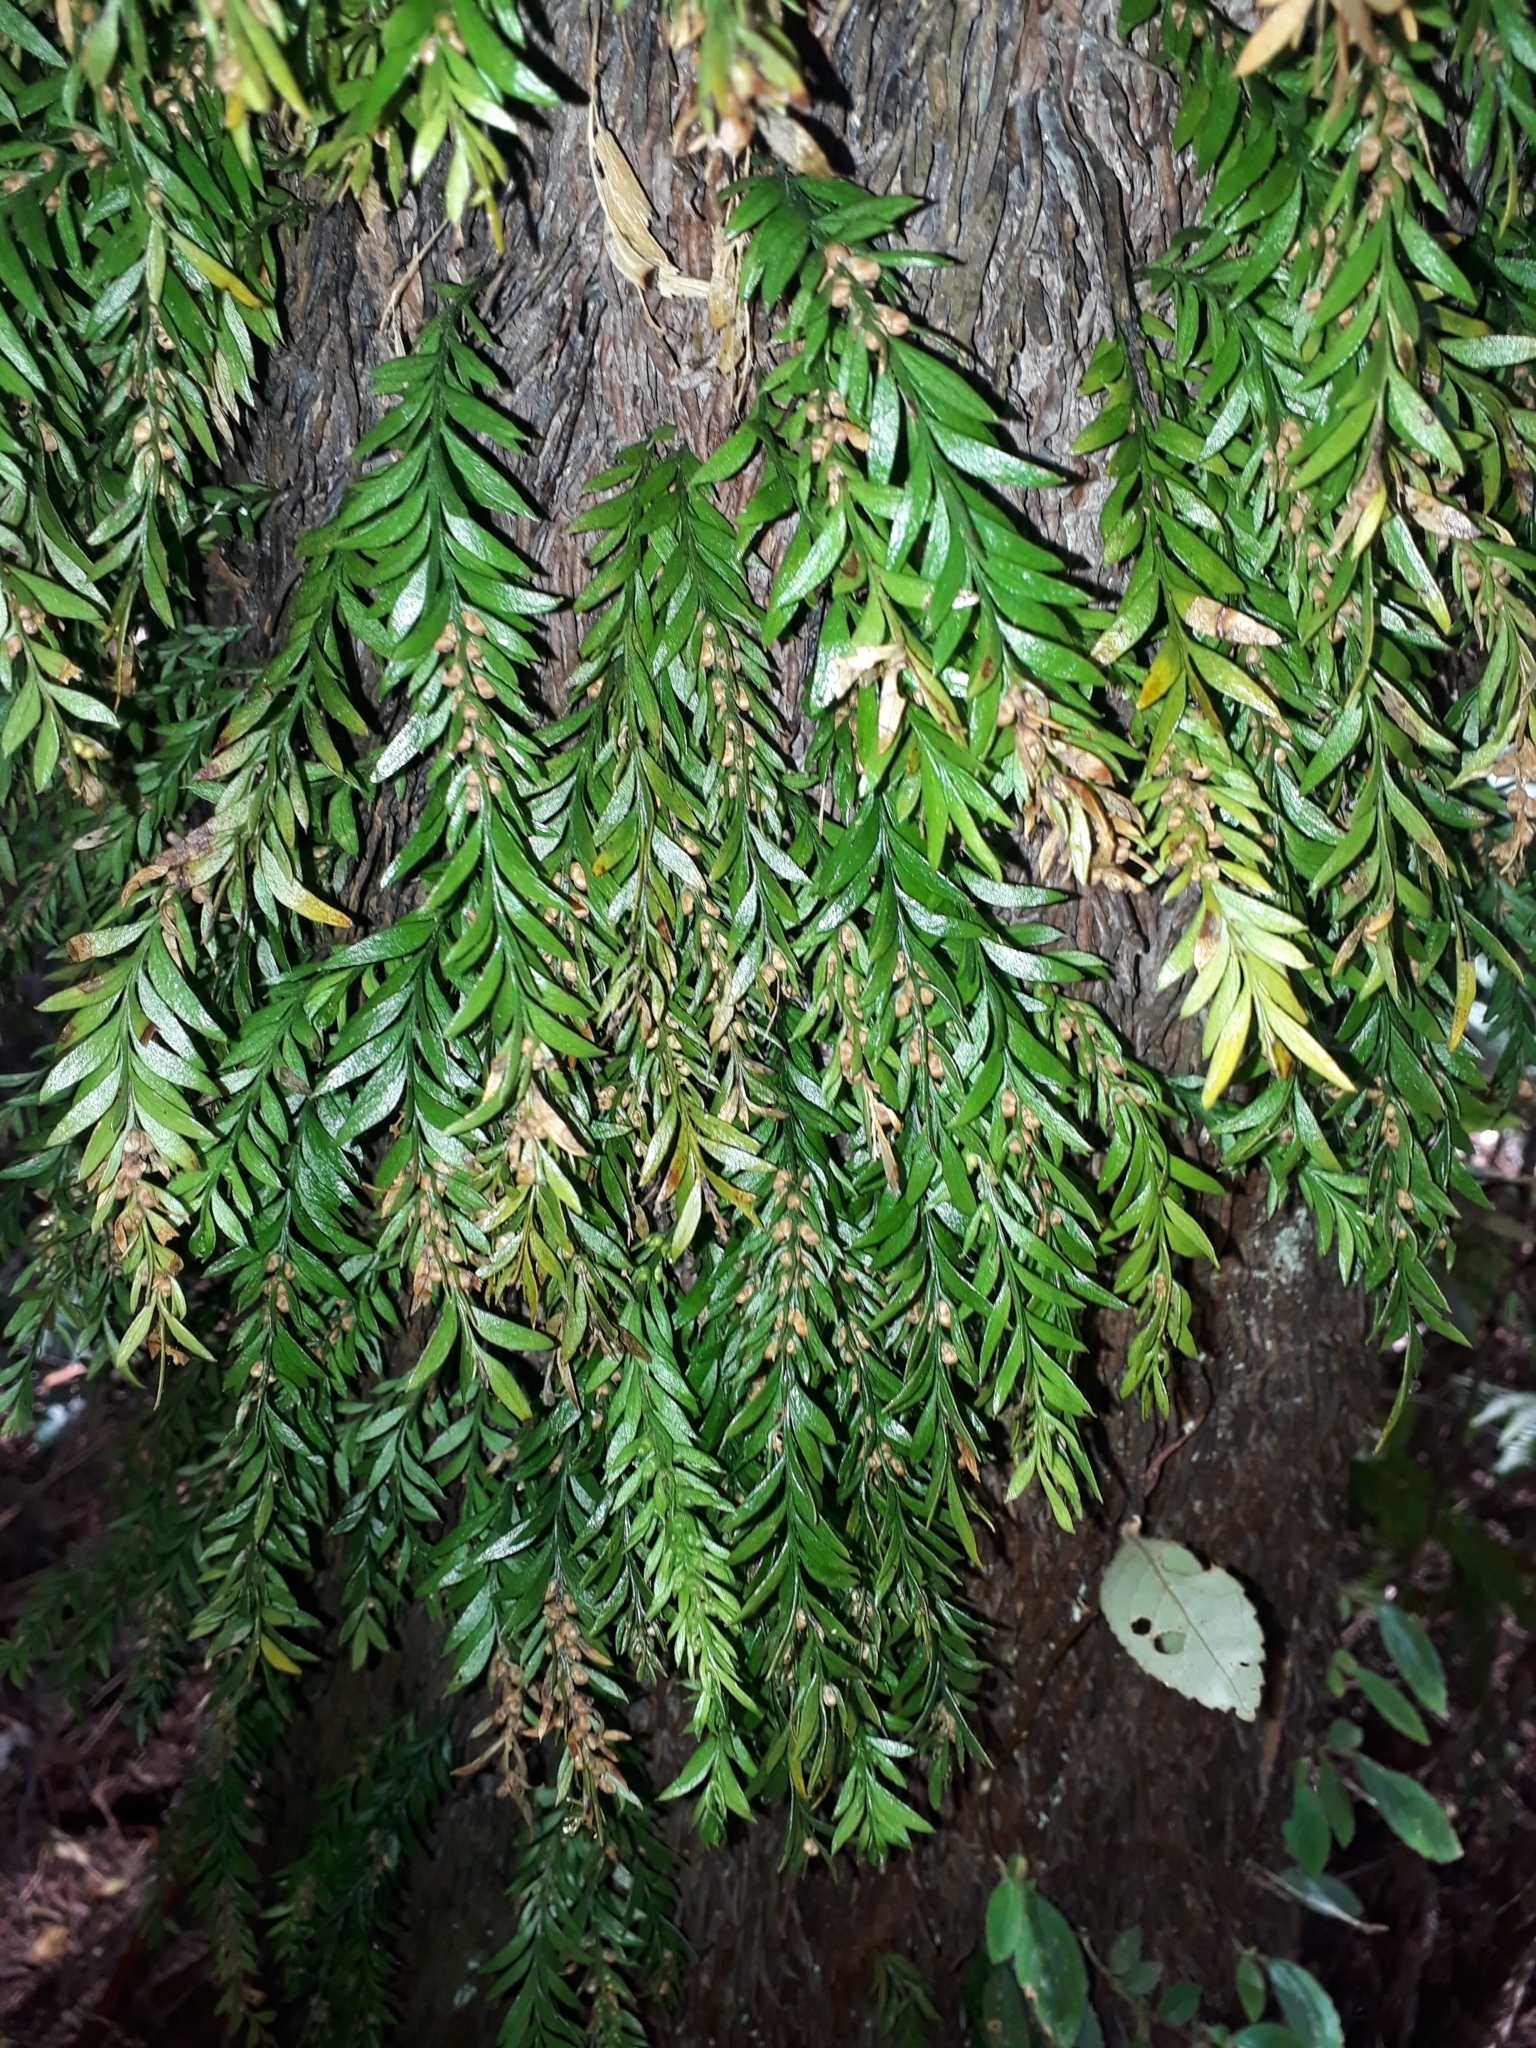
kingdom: Plantae
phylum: Tracheophyta
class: Polypodiopsida
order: Psilotales
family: Psilotaceae
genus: Tmesipteris
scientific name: Tmesipteris parva
